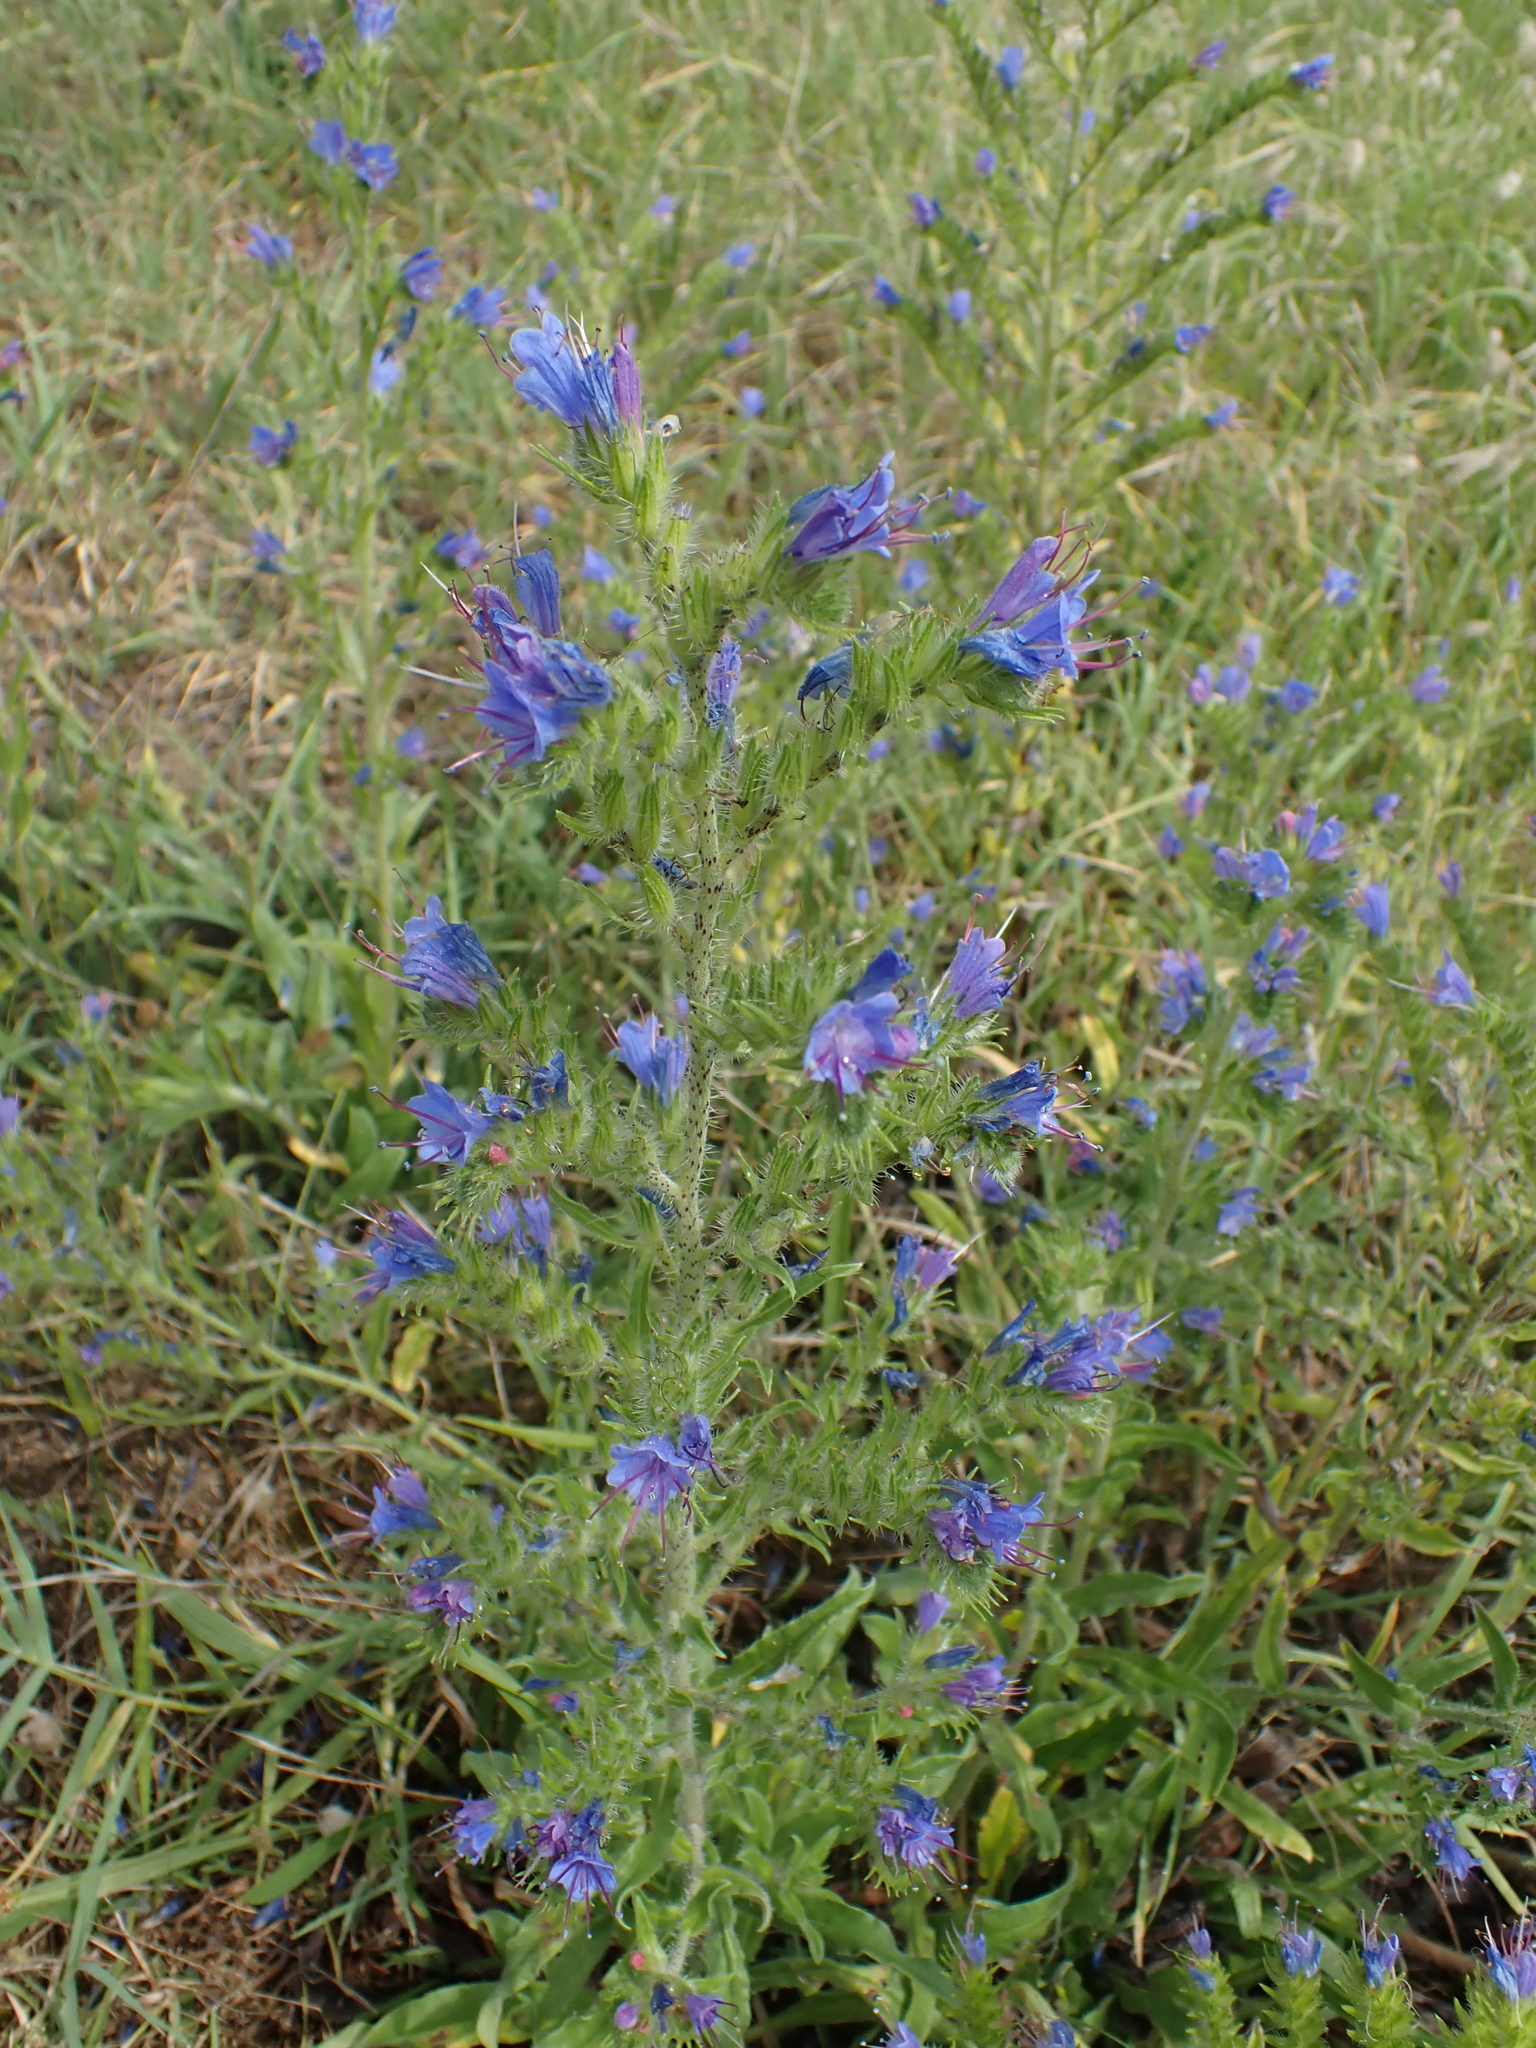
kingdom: Plantae
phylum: Tracheophyta
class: Magnoliopsida
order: Boraginales
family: Boraginaceae
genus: Echium
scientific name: Echium vulgare
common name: Common viper's bugloss
